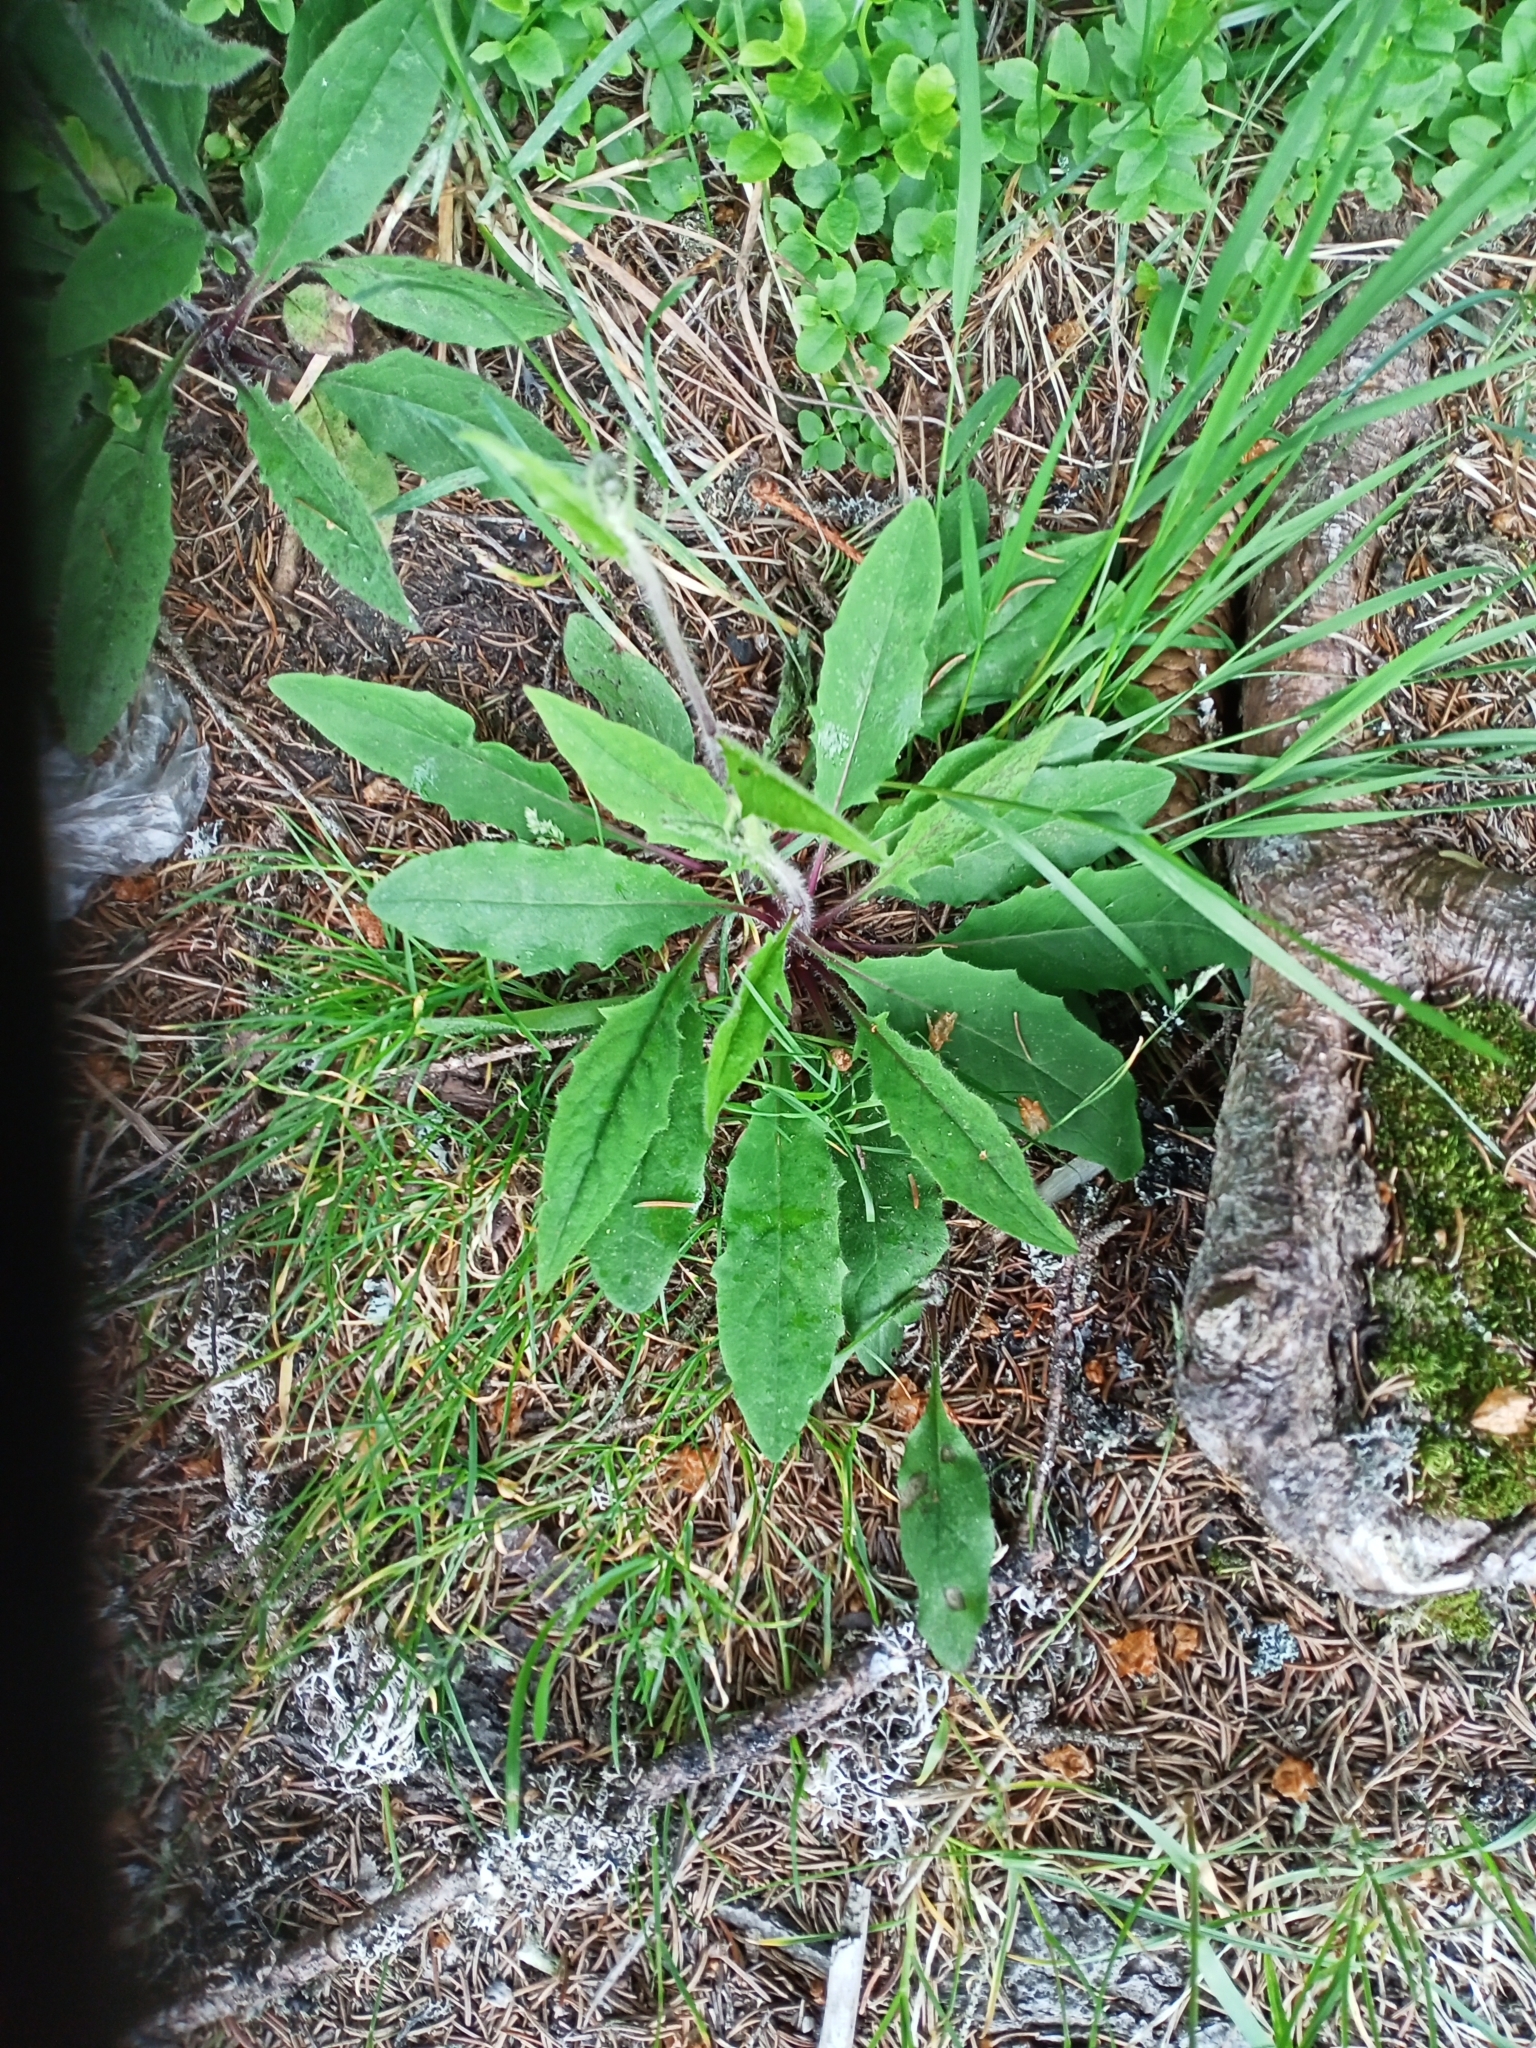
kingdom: Plantae
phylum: Tracheophyta
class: Magnoliopsida
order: Asterales
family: Asteraceae
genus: Hieracium
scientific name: Hieracium lachenalii
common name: Common hawkweed
